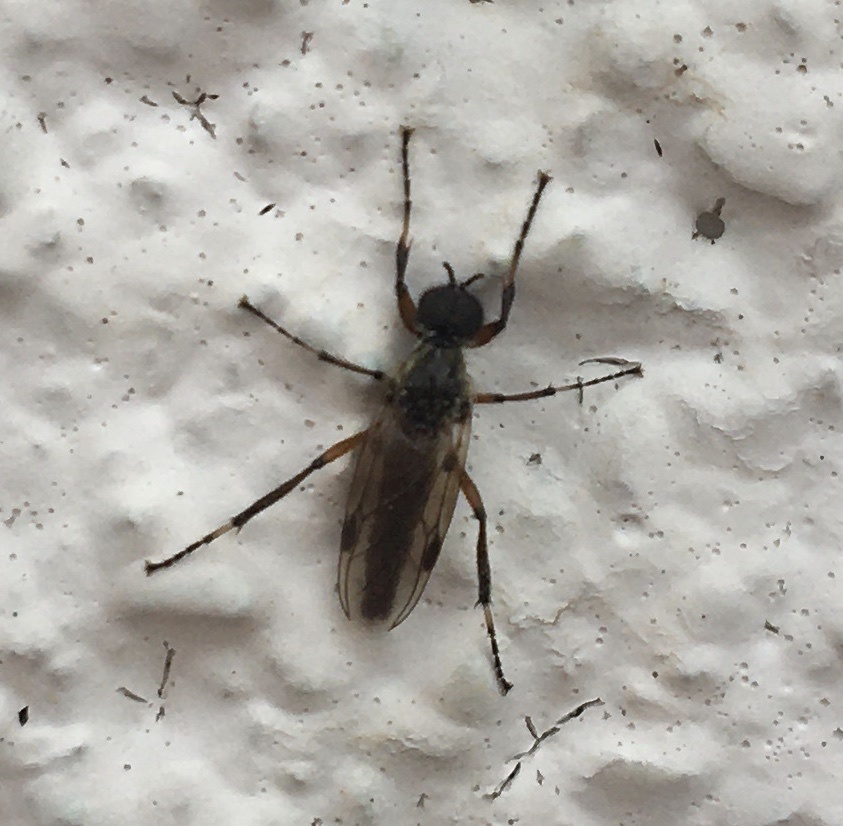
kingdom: Animalia
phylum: Arthropoda
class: Insecta
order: Diptera
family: Bibionidae
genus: Bibio
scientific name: Bibio articulatus
